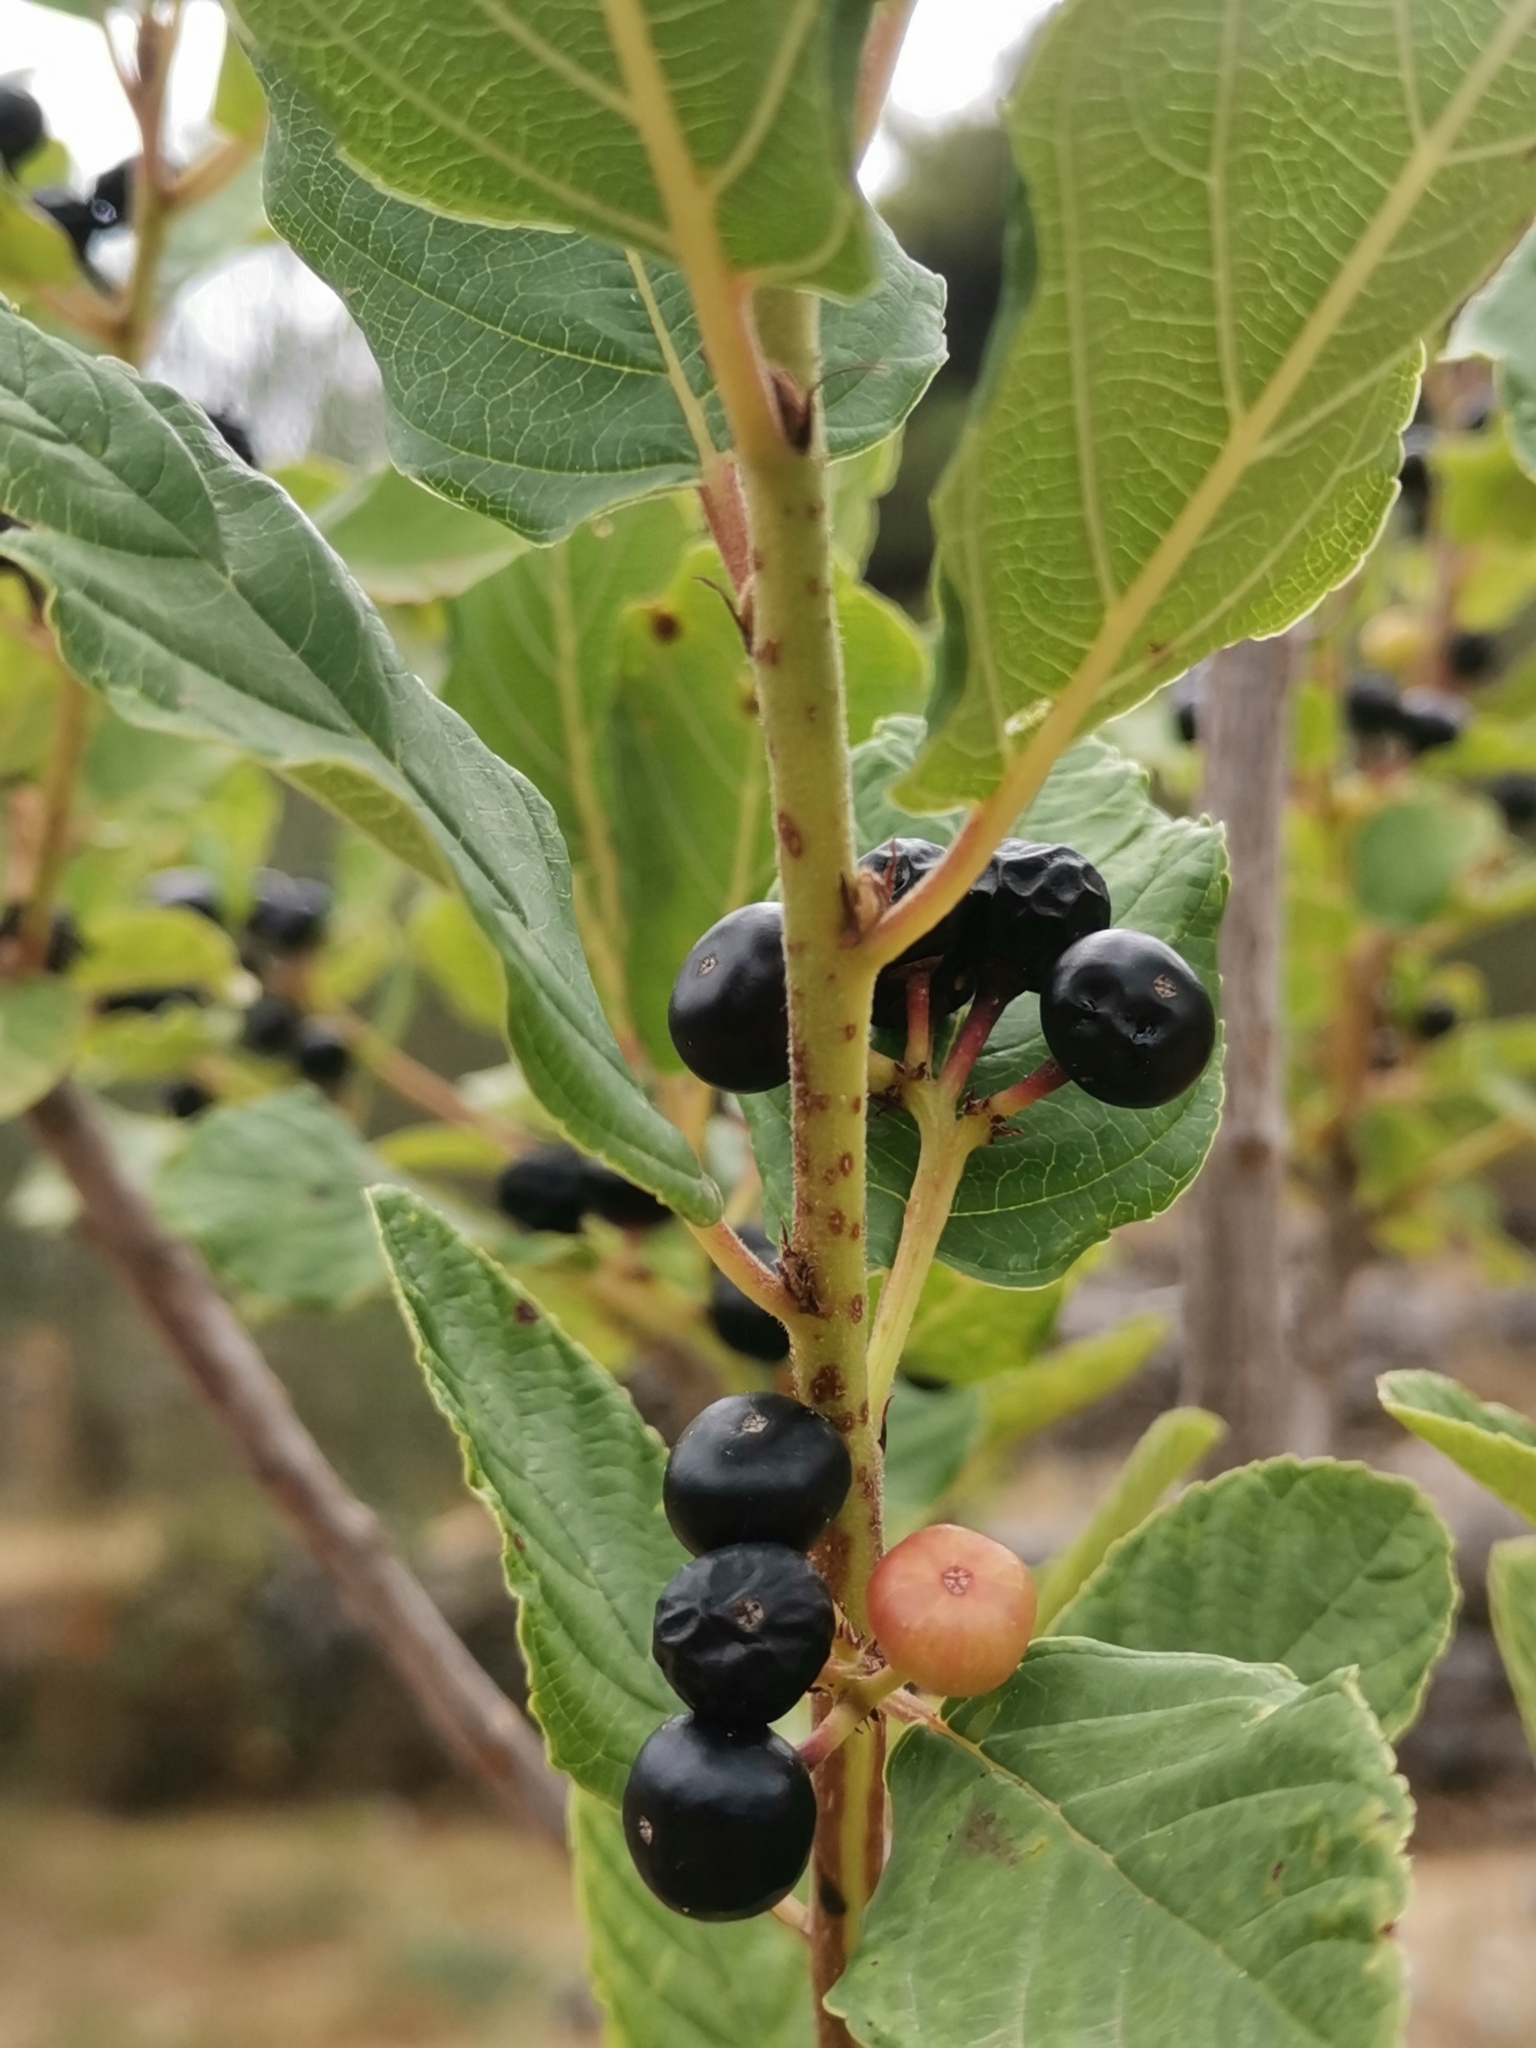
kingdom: Plantae
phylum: Tracheophyta
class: Magnoliopsida
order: Rosales
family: Rhamnaceae
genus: Frangula
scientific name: Frangula rupestris
